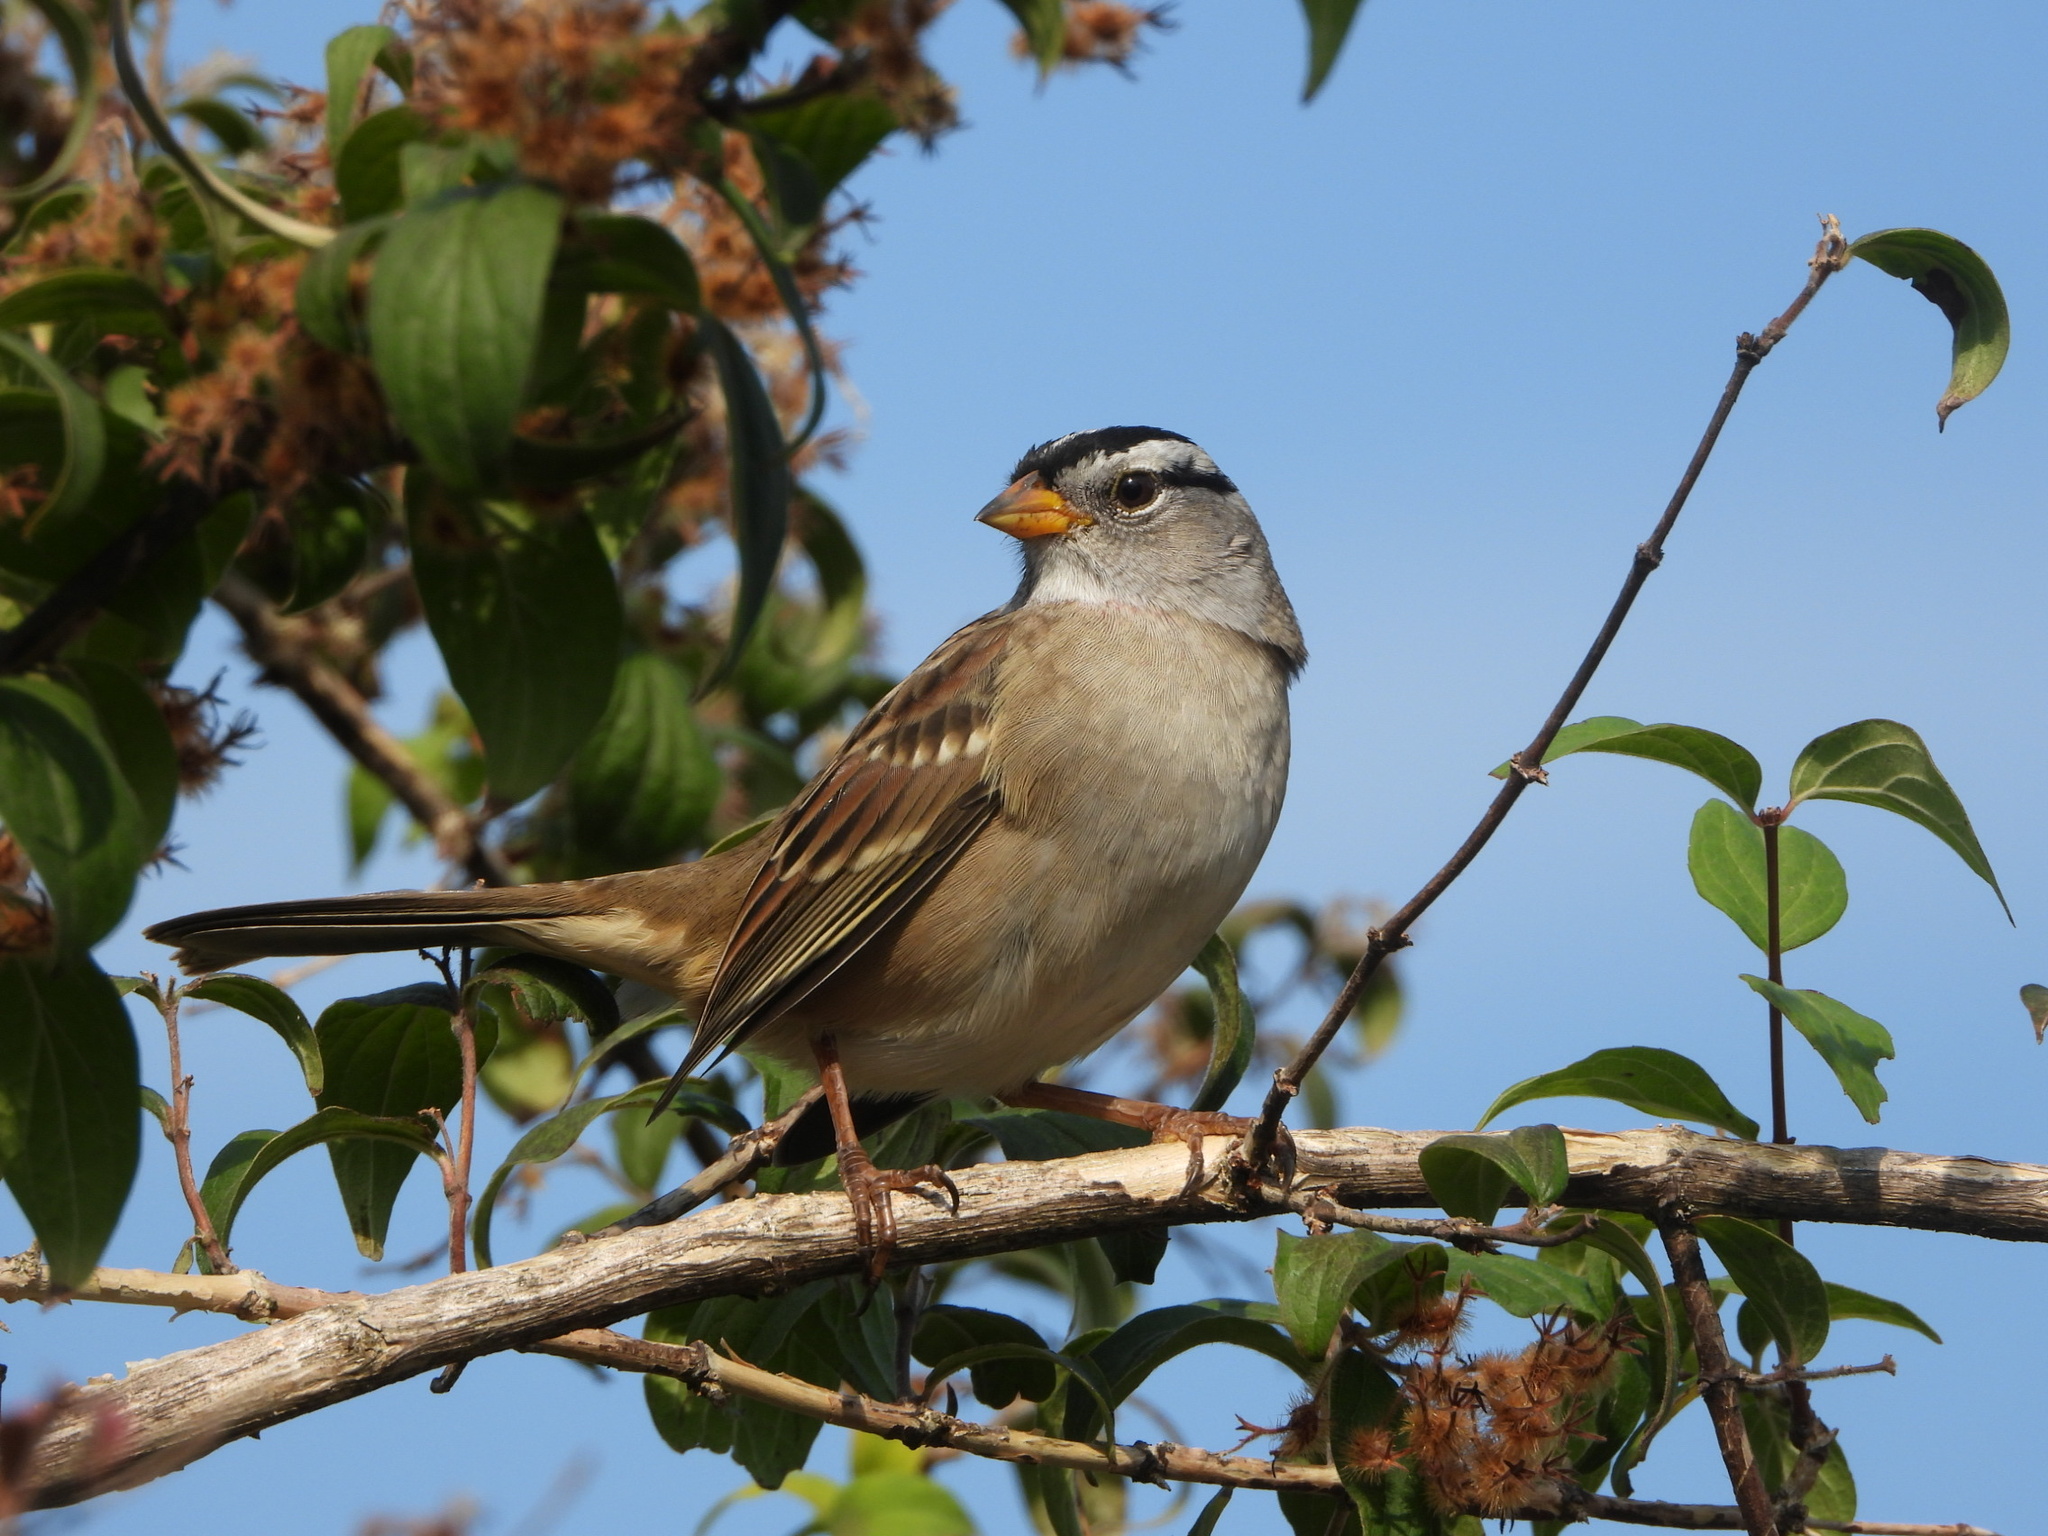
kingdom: Animalia
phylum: Chordata
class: Aves
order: Passeriformes
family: Passerellidae
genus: Zonotrichia
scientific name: Zonotrichia leucophrys
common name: White-crowned sparrow
